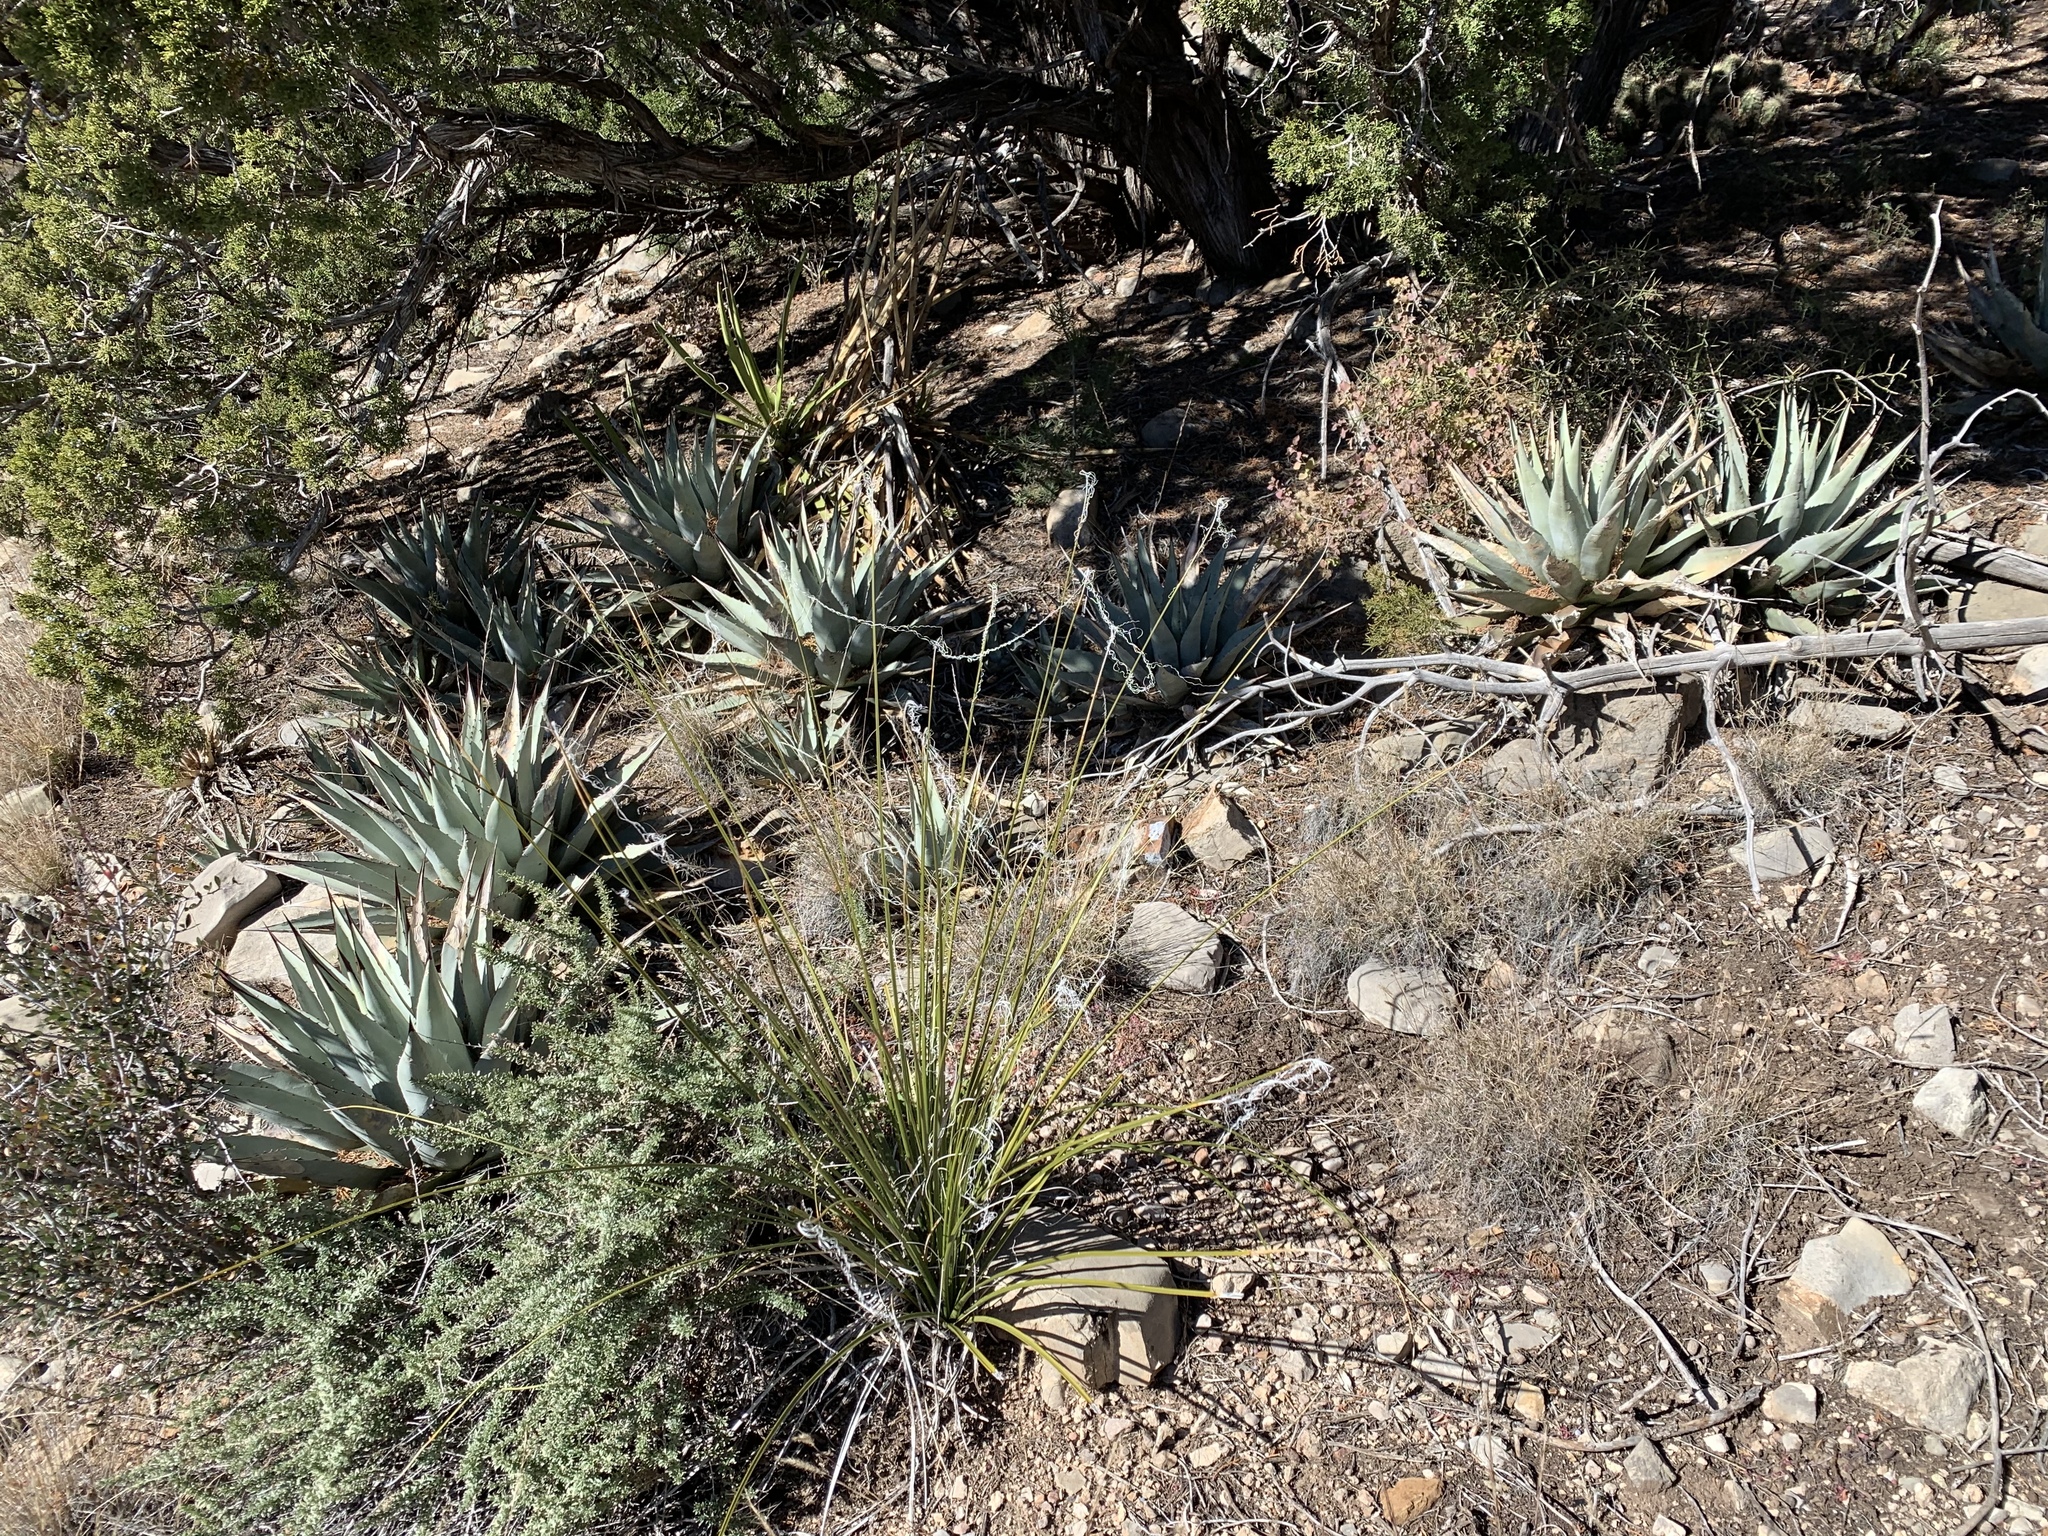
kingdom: Plantae
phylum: Tracheophyta
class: Liliopsida
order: Asparagales
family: Asparagaceae
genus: Agave
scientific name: Agave parryi
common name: Parry's agave
